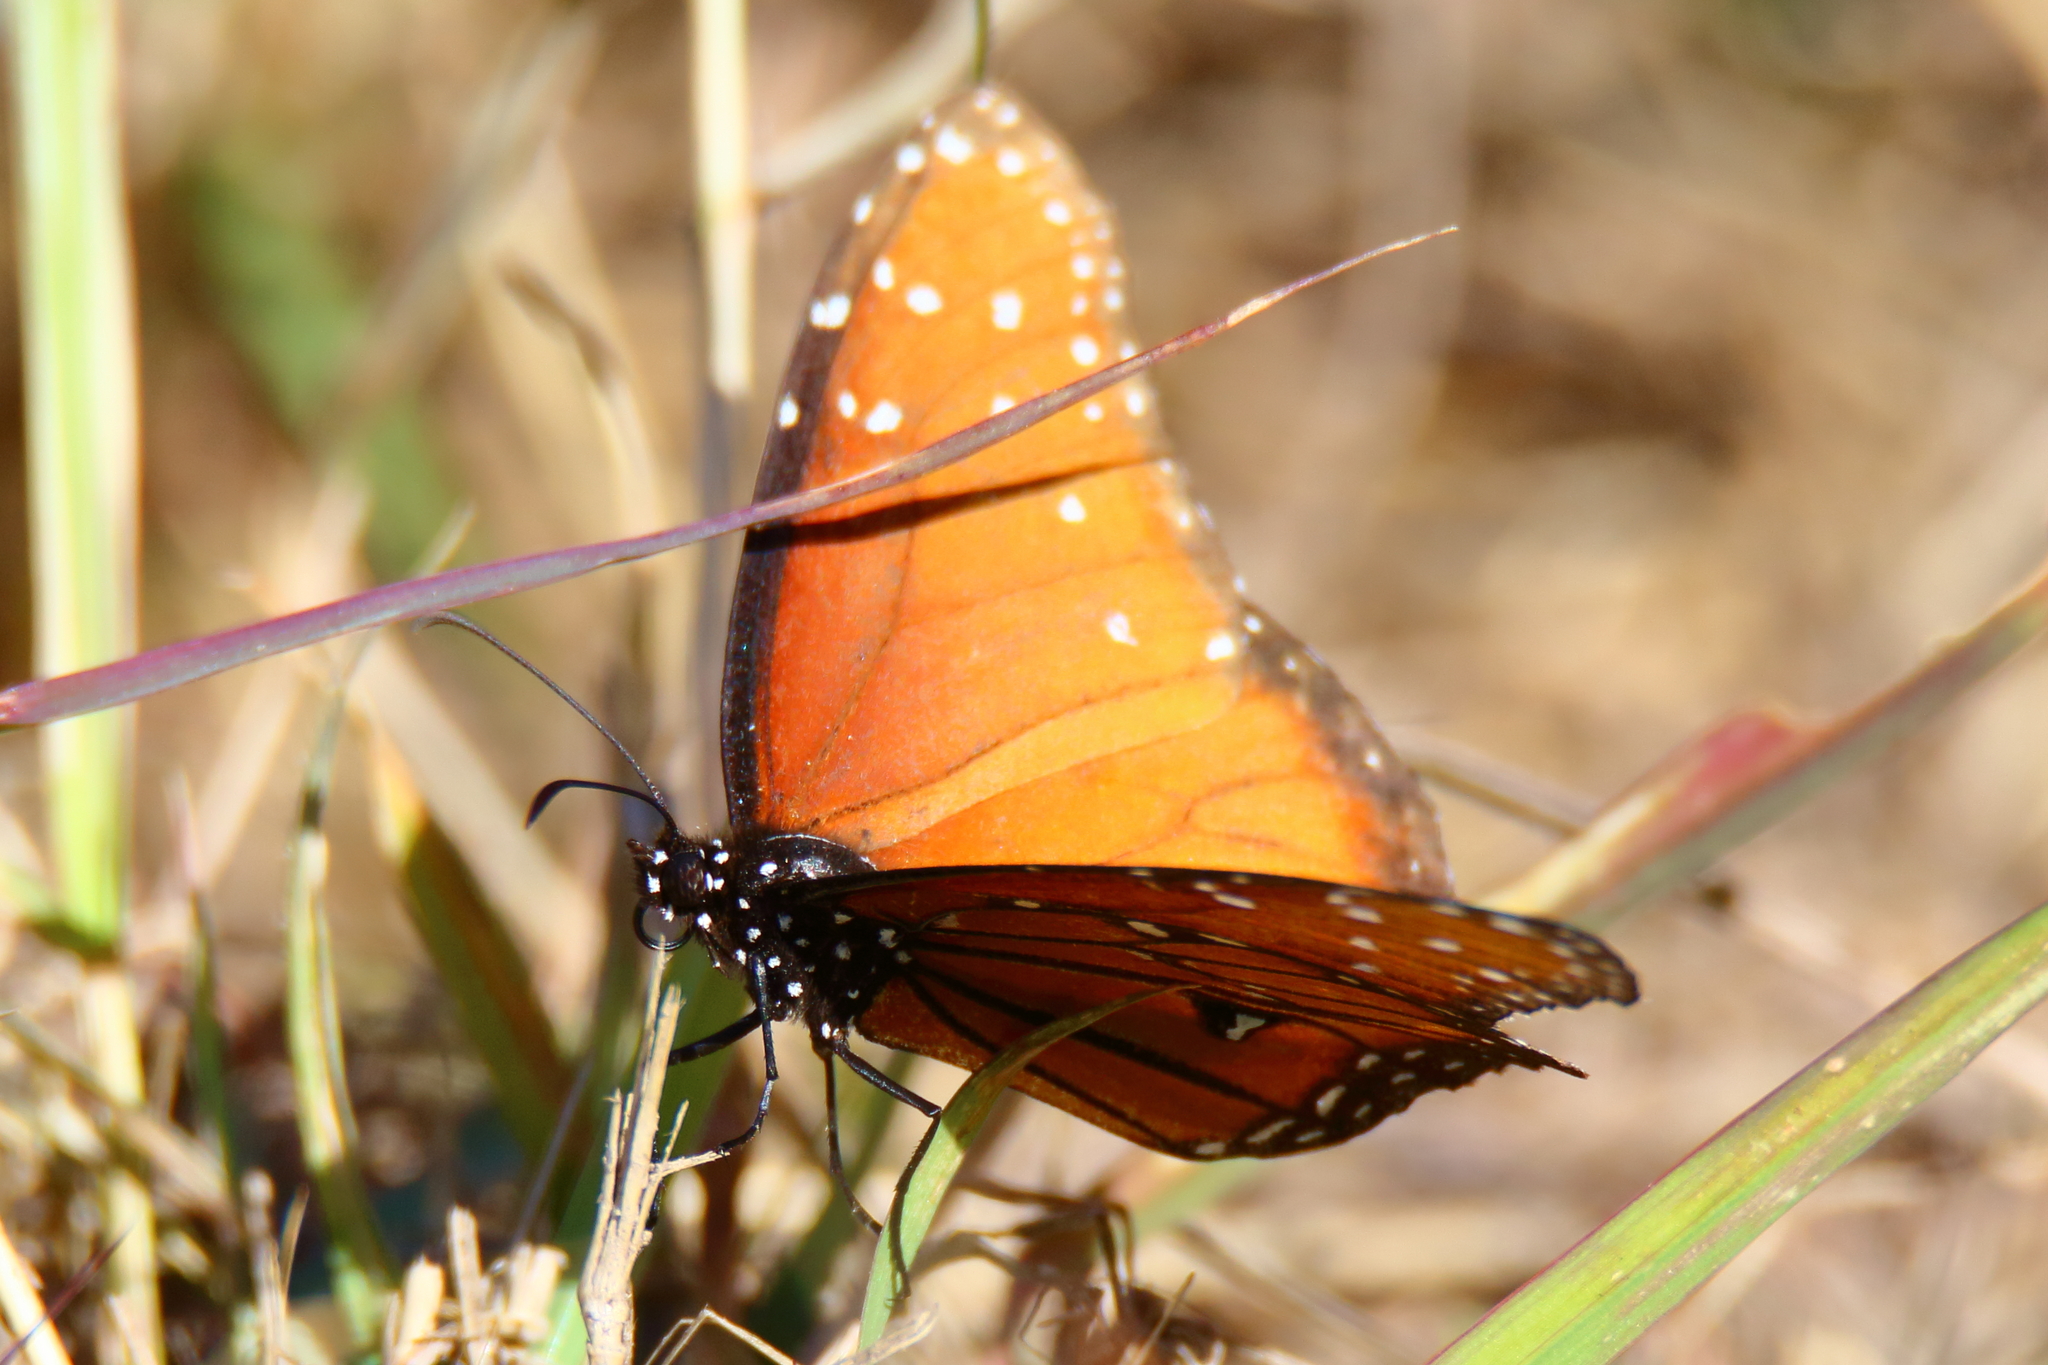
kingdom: Animalia
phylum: Arthropoda
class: Insecta
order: Lepidoptera
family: Nymphalidae
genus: Danaus
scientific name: Danaus gilippus
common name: Queen
